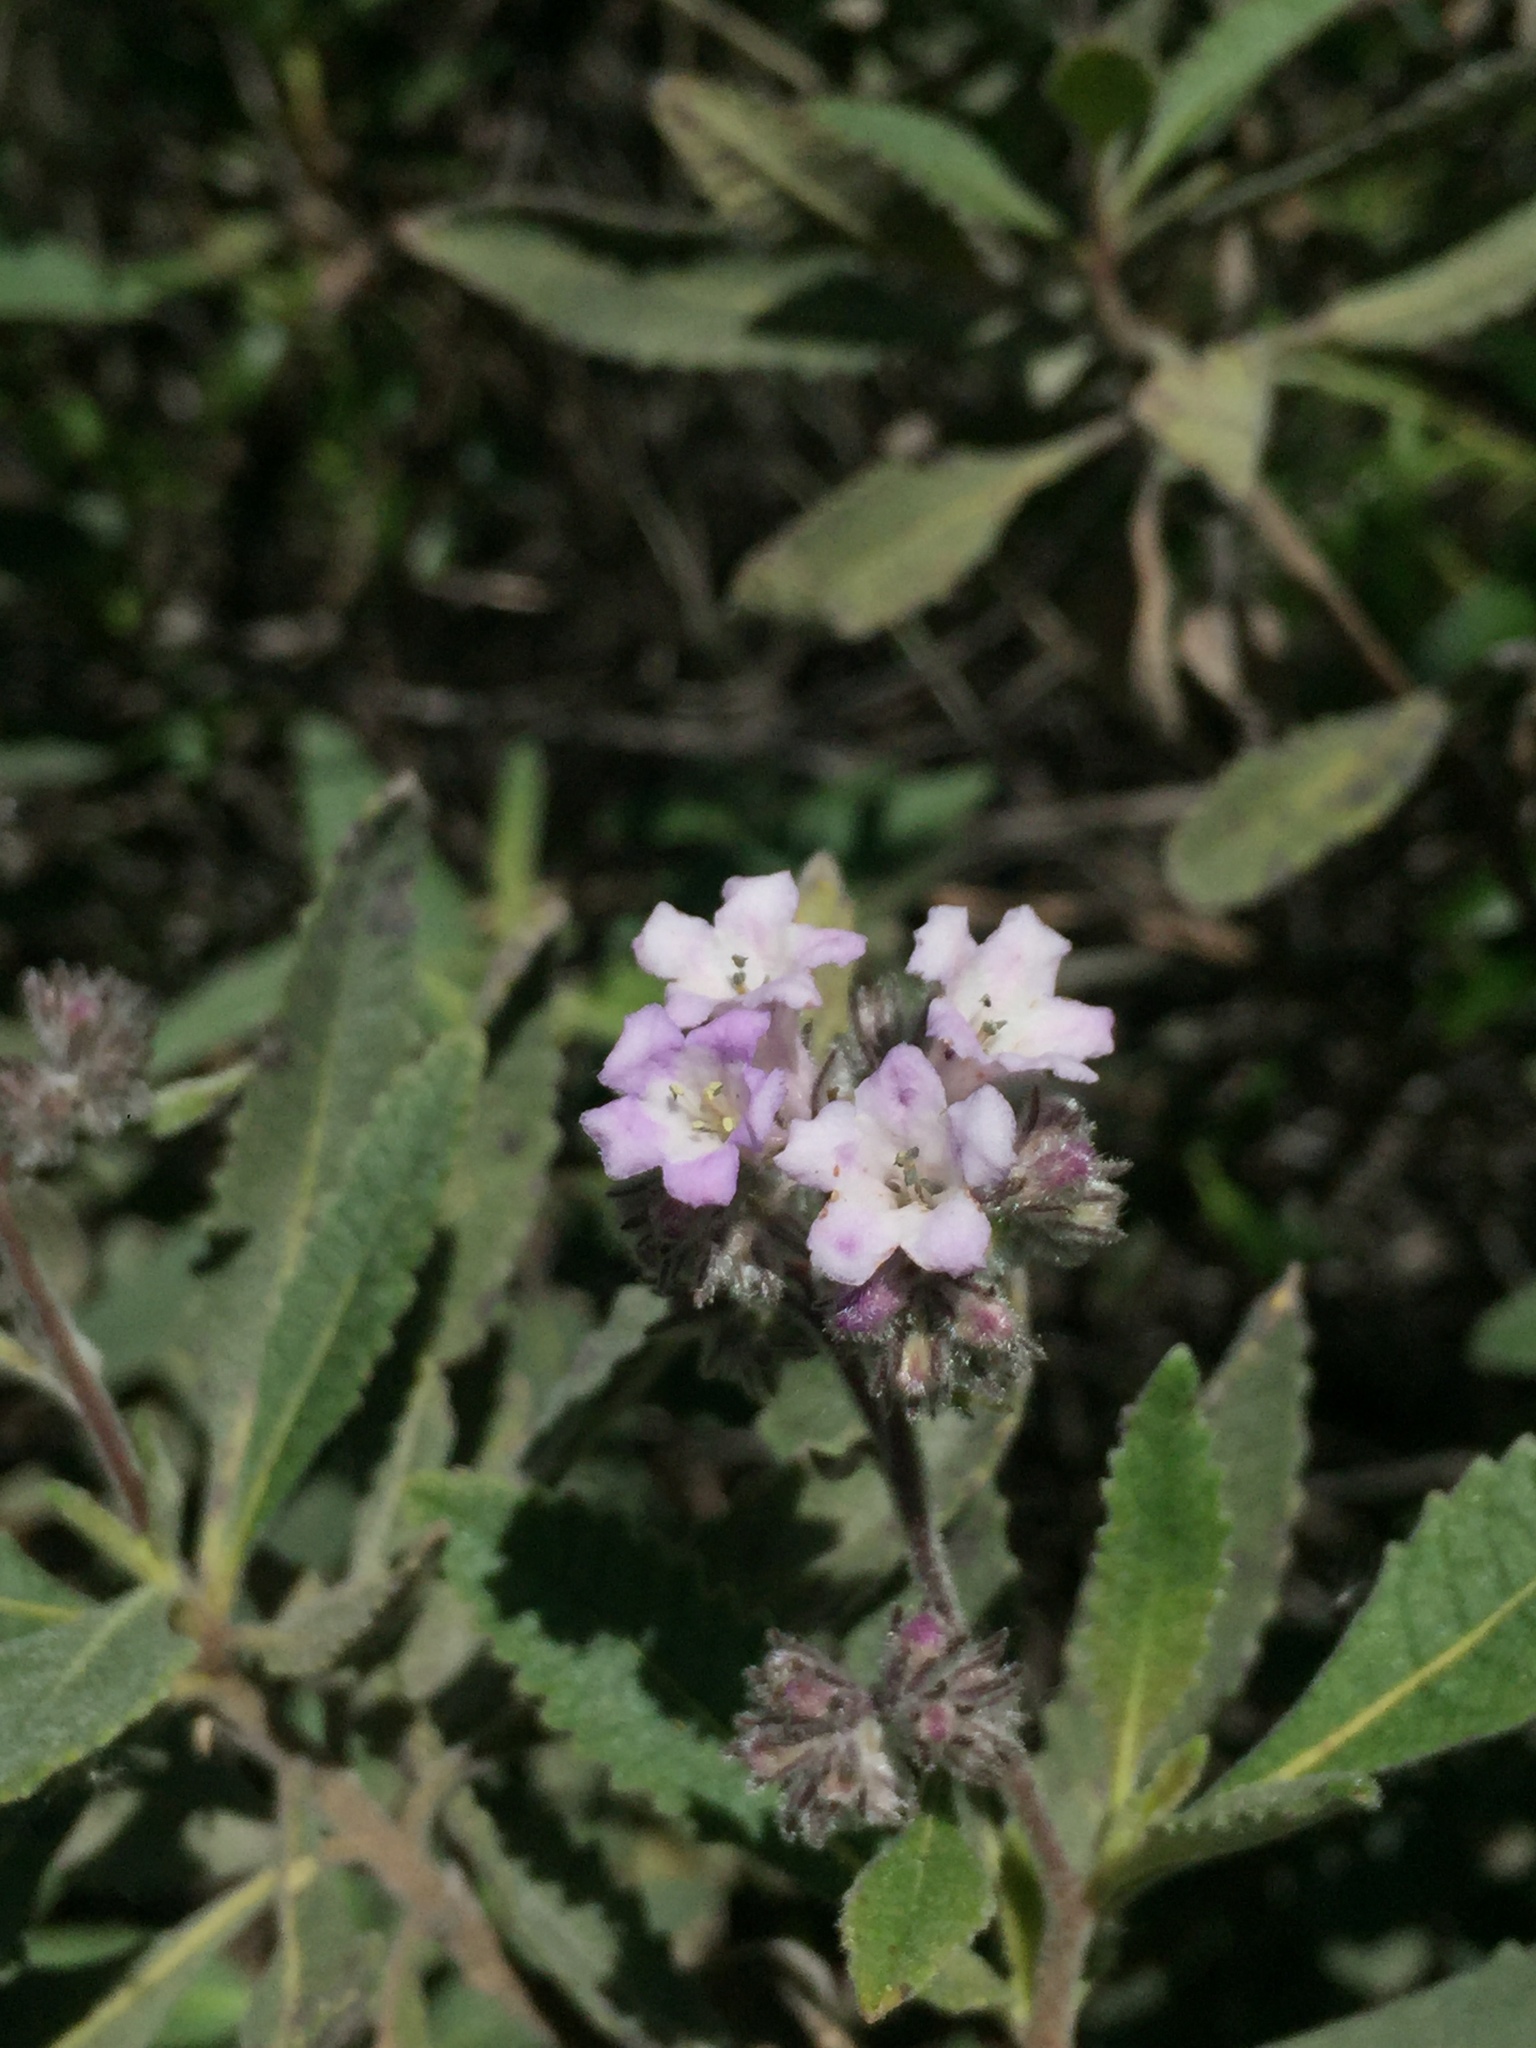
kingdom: Plantae
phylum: Tracheophyta
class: Magnoliopsida
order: Boraginales
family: Namaceae
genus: Eriodictyon
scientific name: Eriodictyon crassifolium
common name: Thick-leaf yerba-santa
